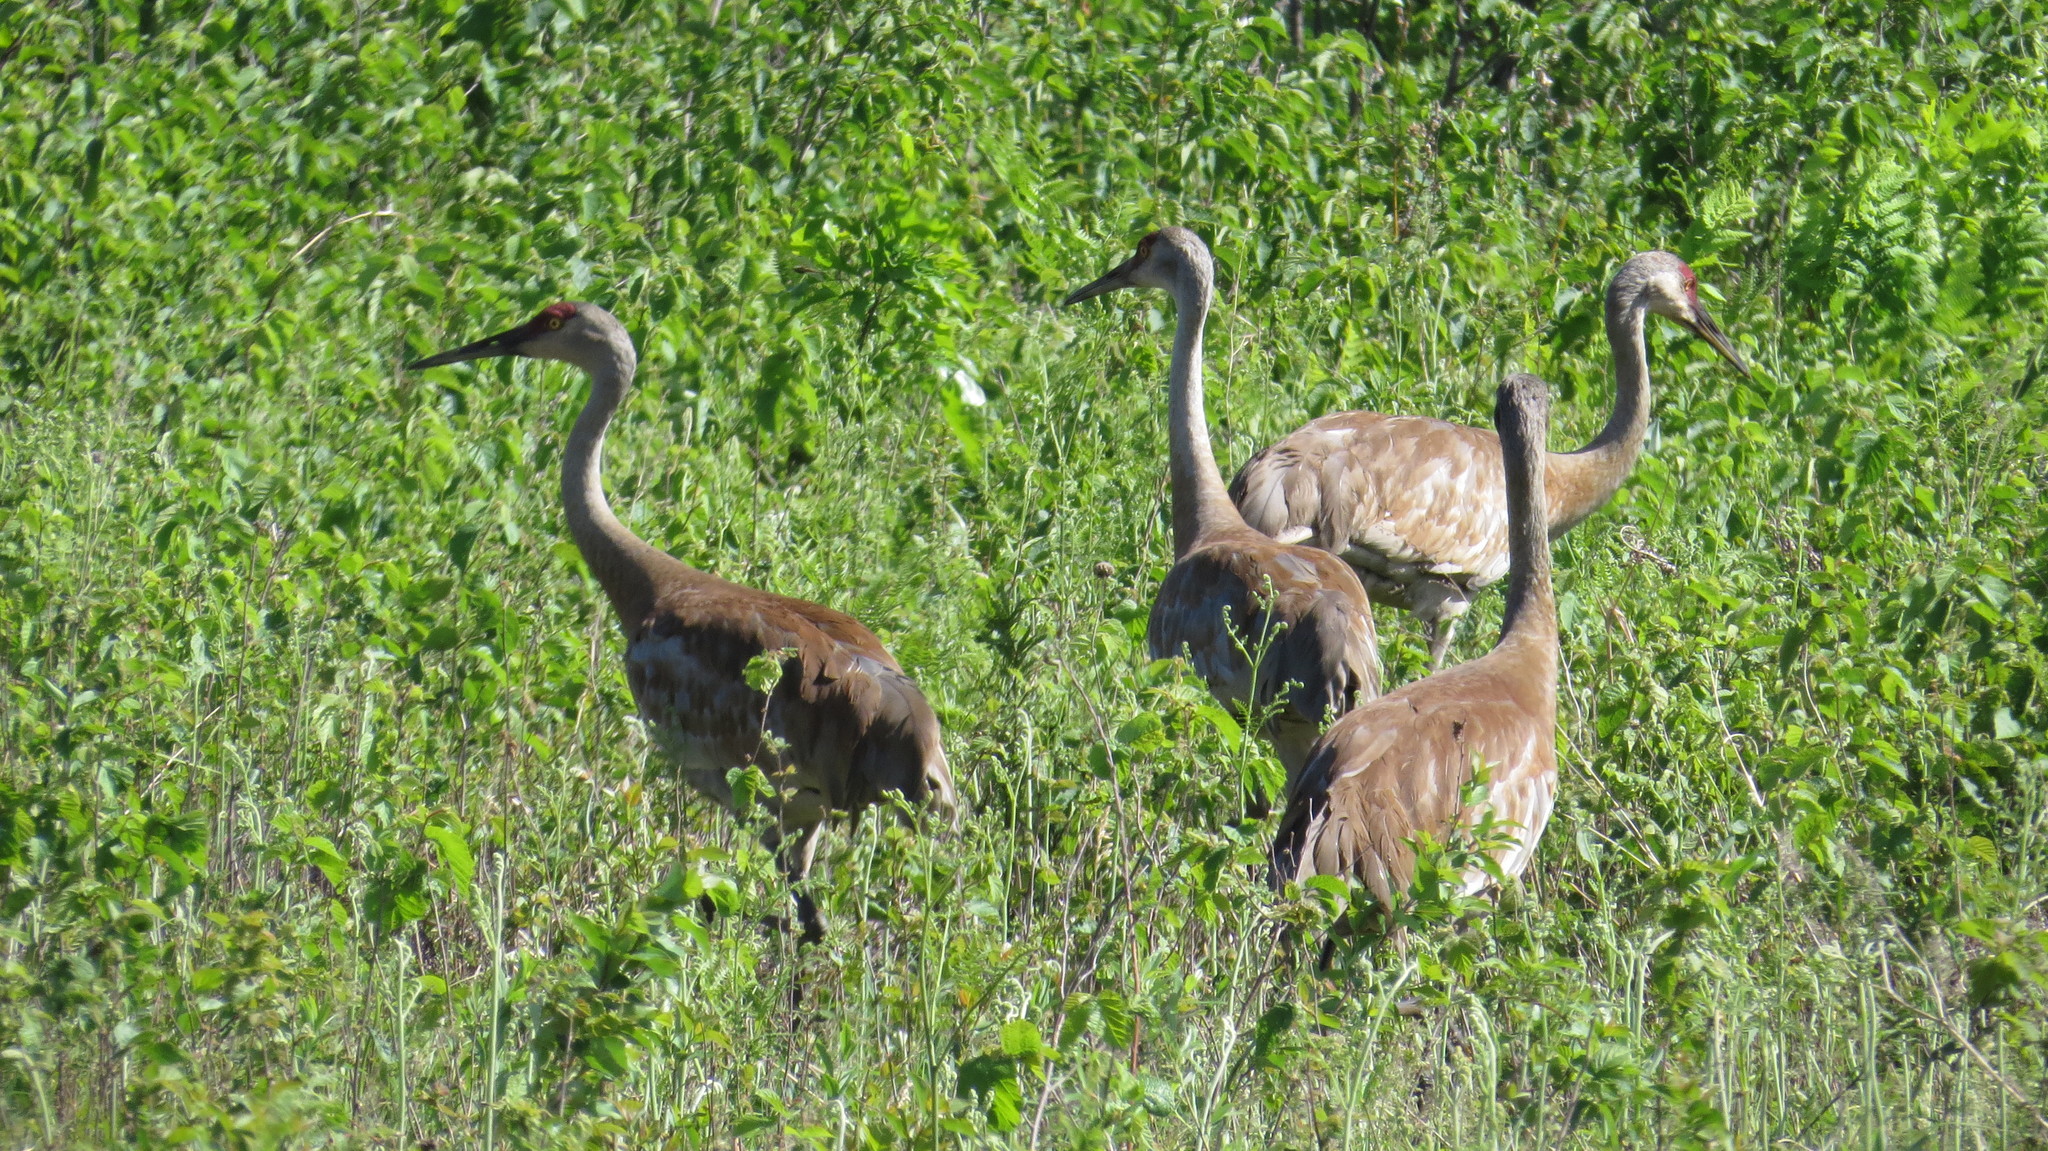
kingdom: Animalia
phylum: Chordata
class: Aves
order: Gruiformes
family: Gruidae
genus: Grus
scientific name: Grus canadensis
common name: Sandhill crane
